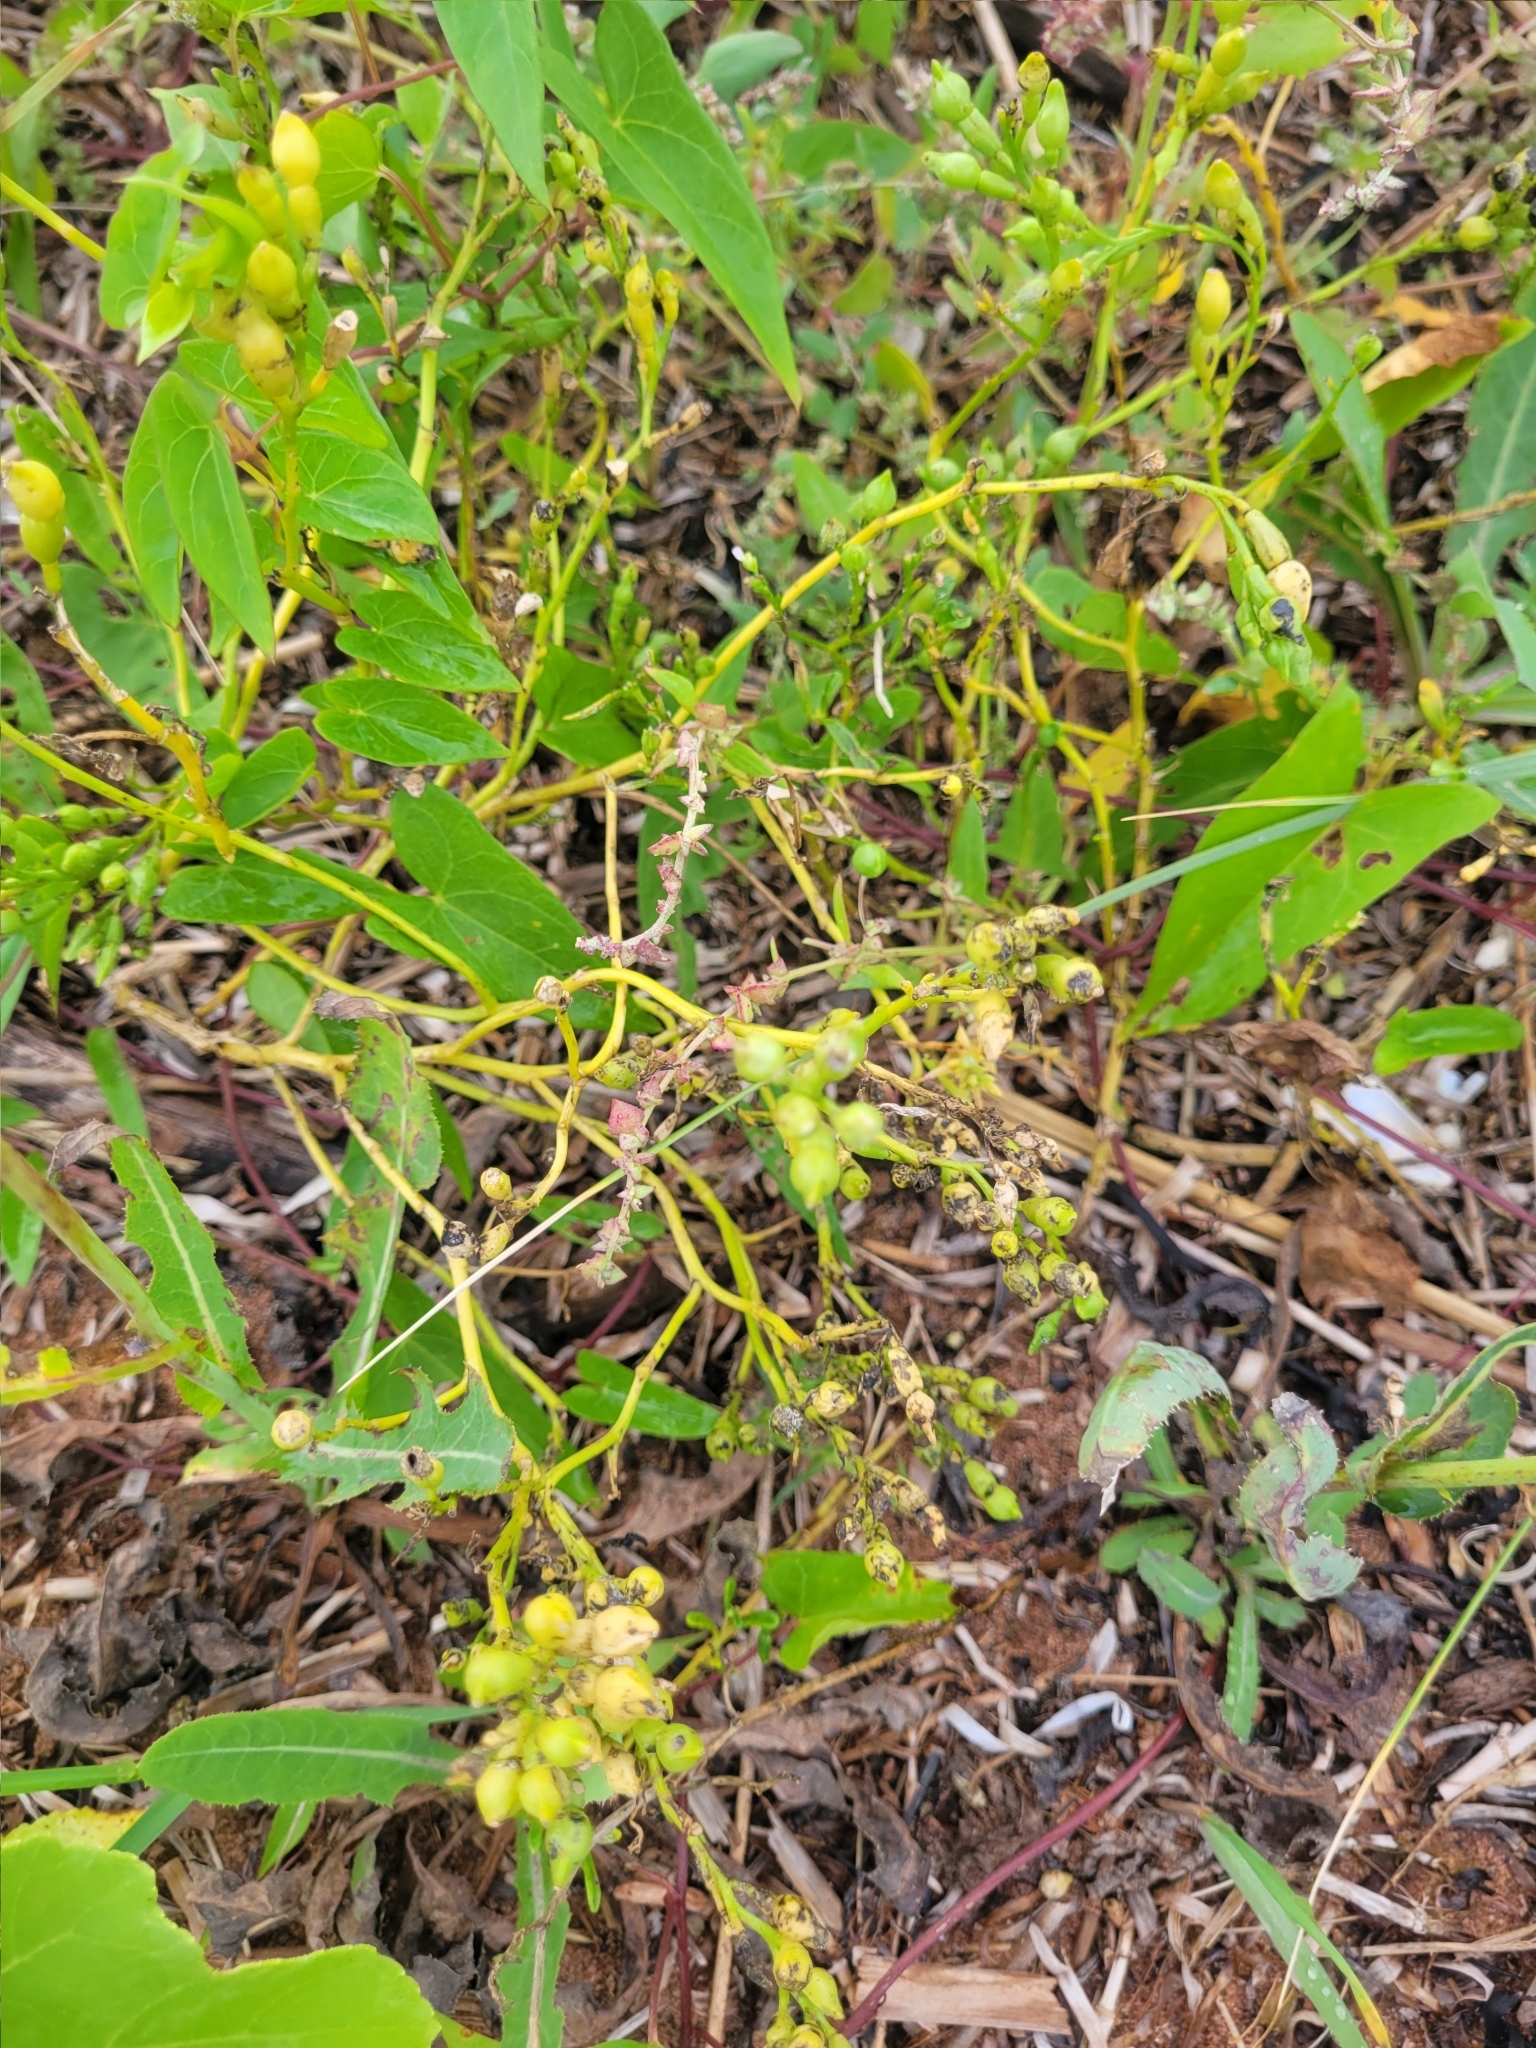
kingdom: Plantae
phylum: Tracheophyta
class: Magnoliopsida
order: Brassicales
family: Brassicaceae
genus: Cakile
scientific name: Cakile edentula
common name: American sea rocket
